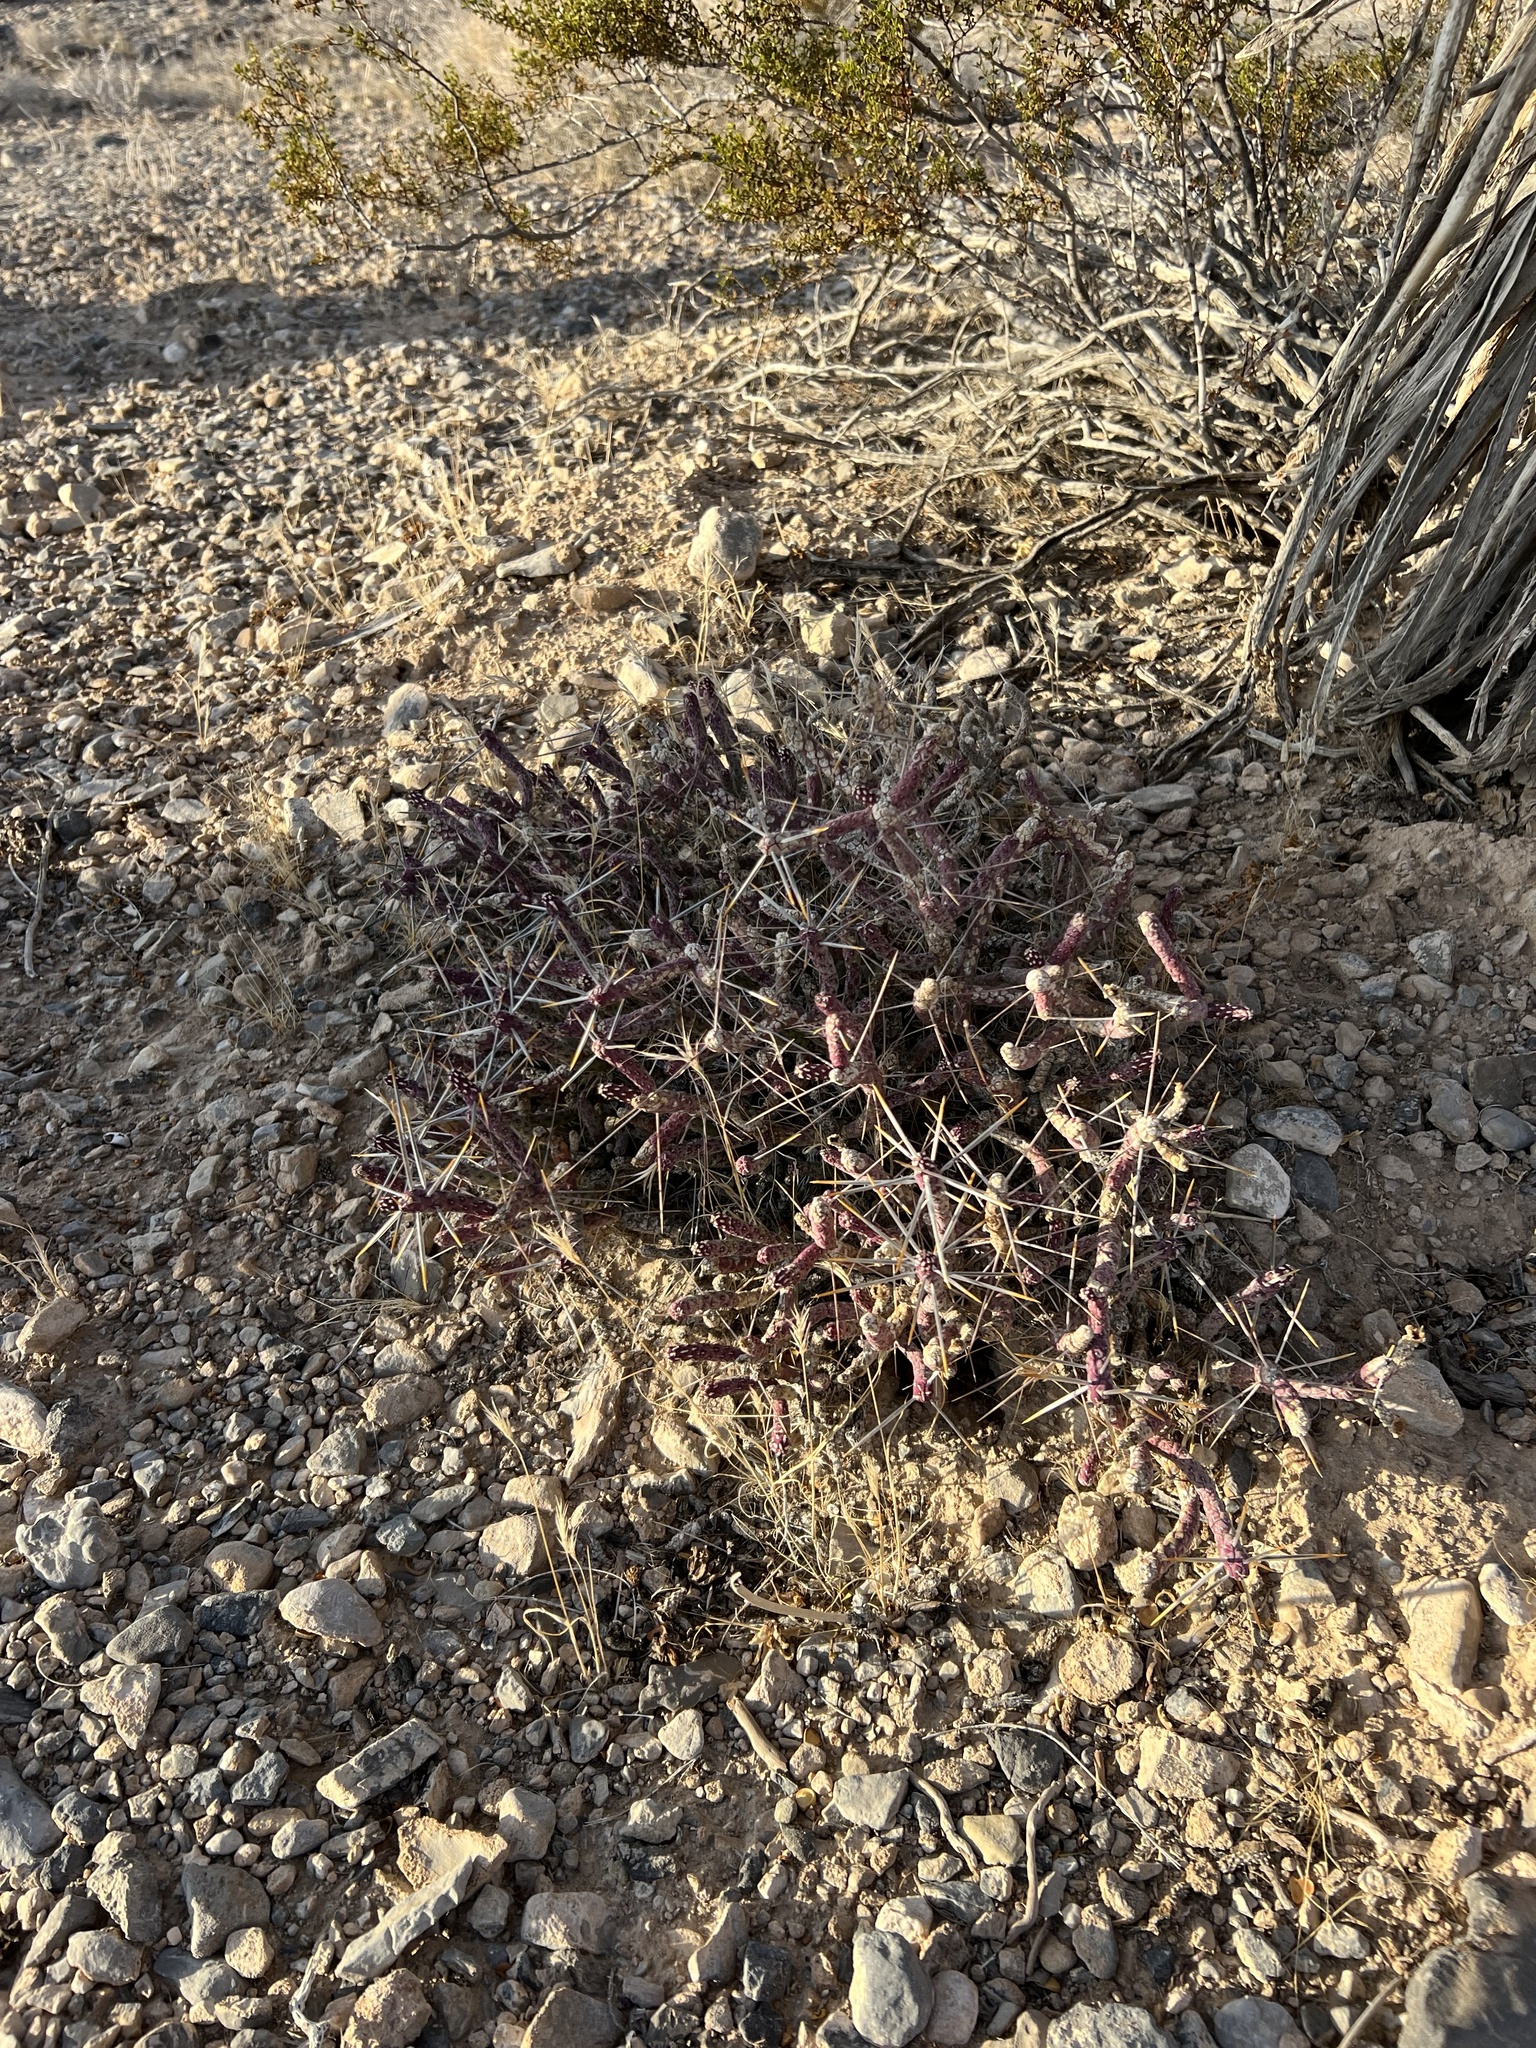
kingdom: Plantae
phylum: Tracheophyta
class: Magnoliopsida
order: Caryophyllales
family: Cactaceae
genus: Cylindropuntia
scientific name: Cylindropuntia ramosissima
